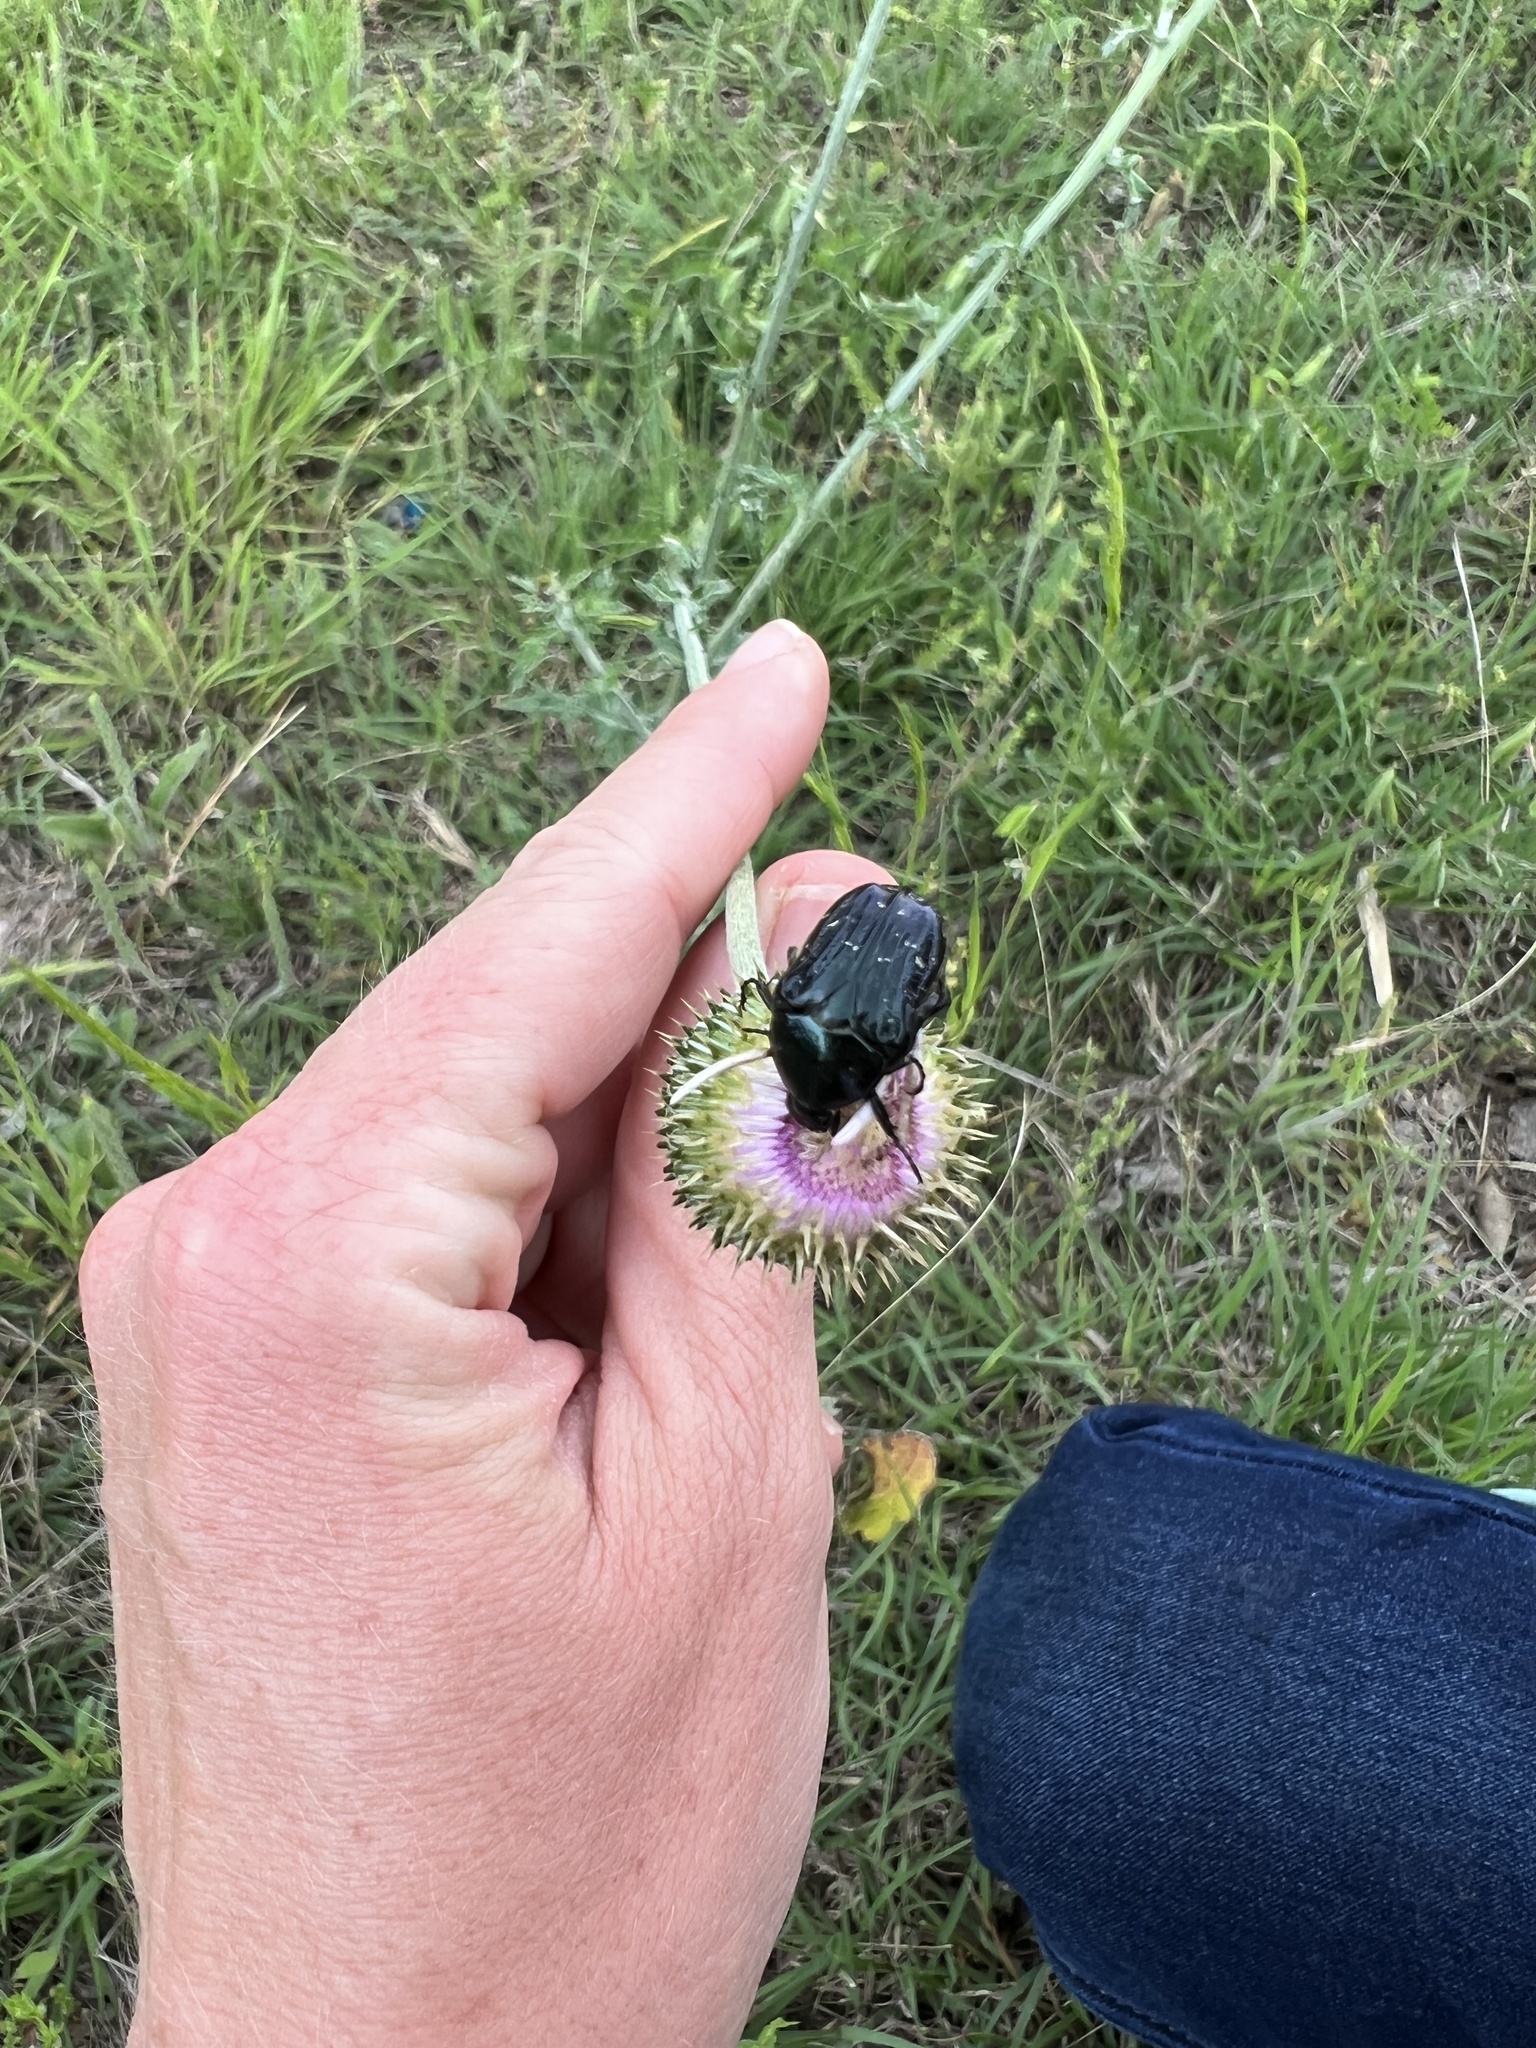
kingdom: Animalia
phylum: Arthropoda
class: Insecta
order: Coleoptera
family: Scarabaeidae
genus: Euphoria
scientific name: Euphoria sepulcralis
